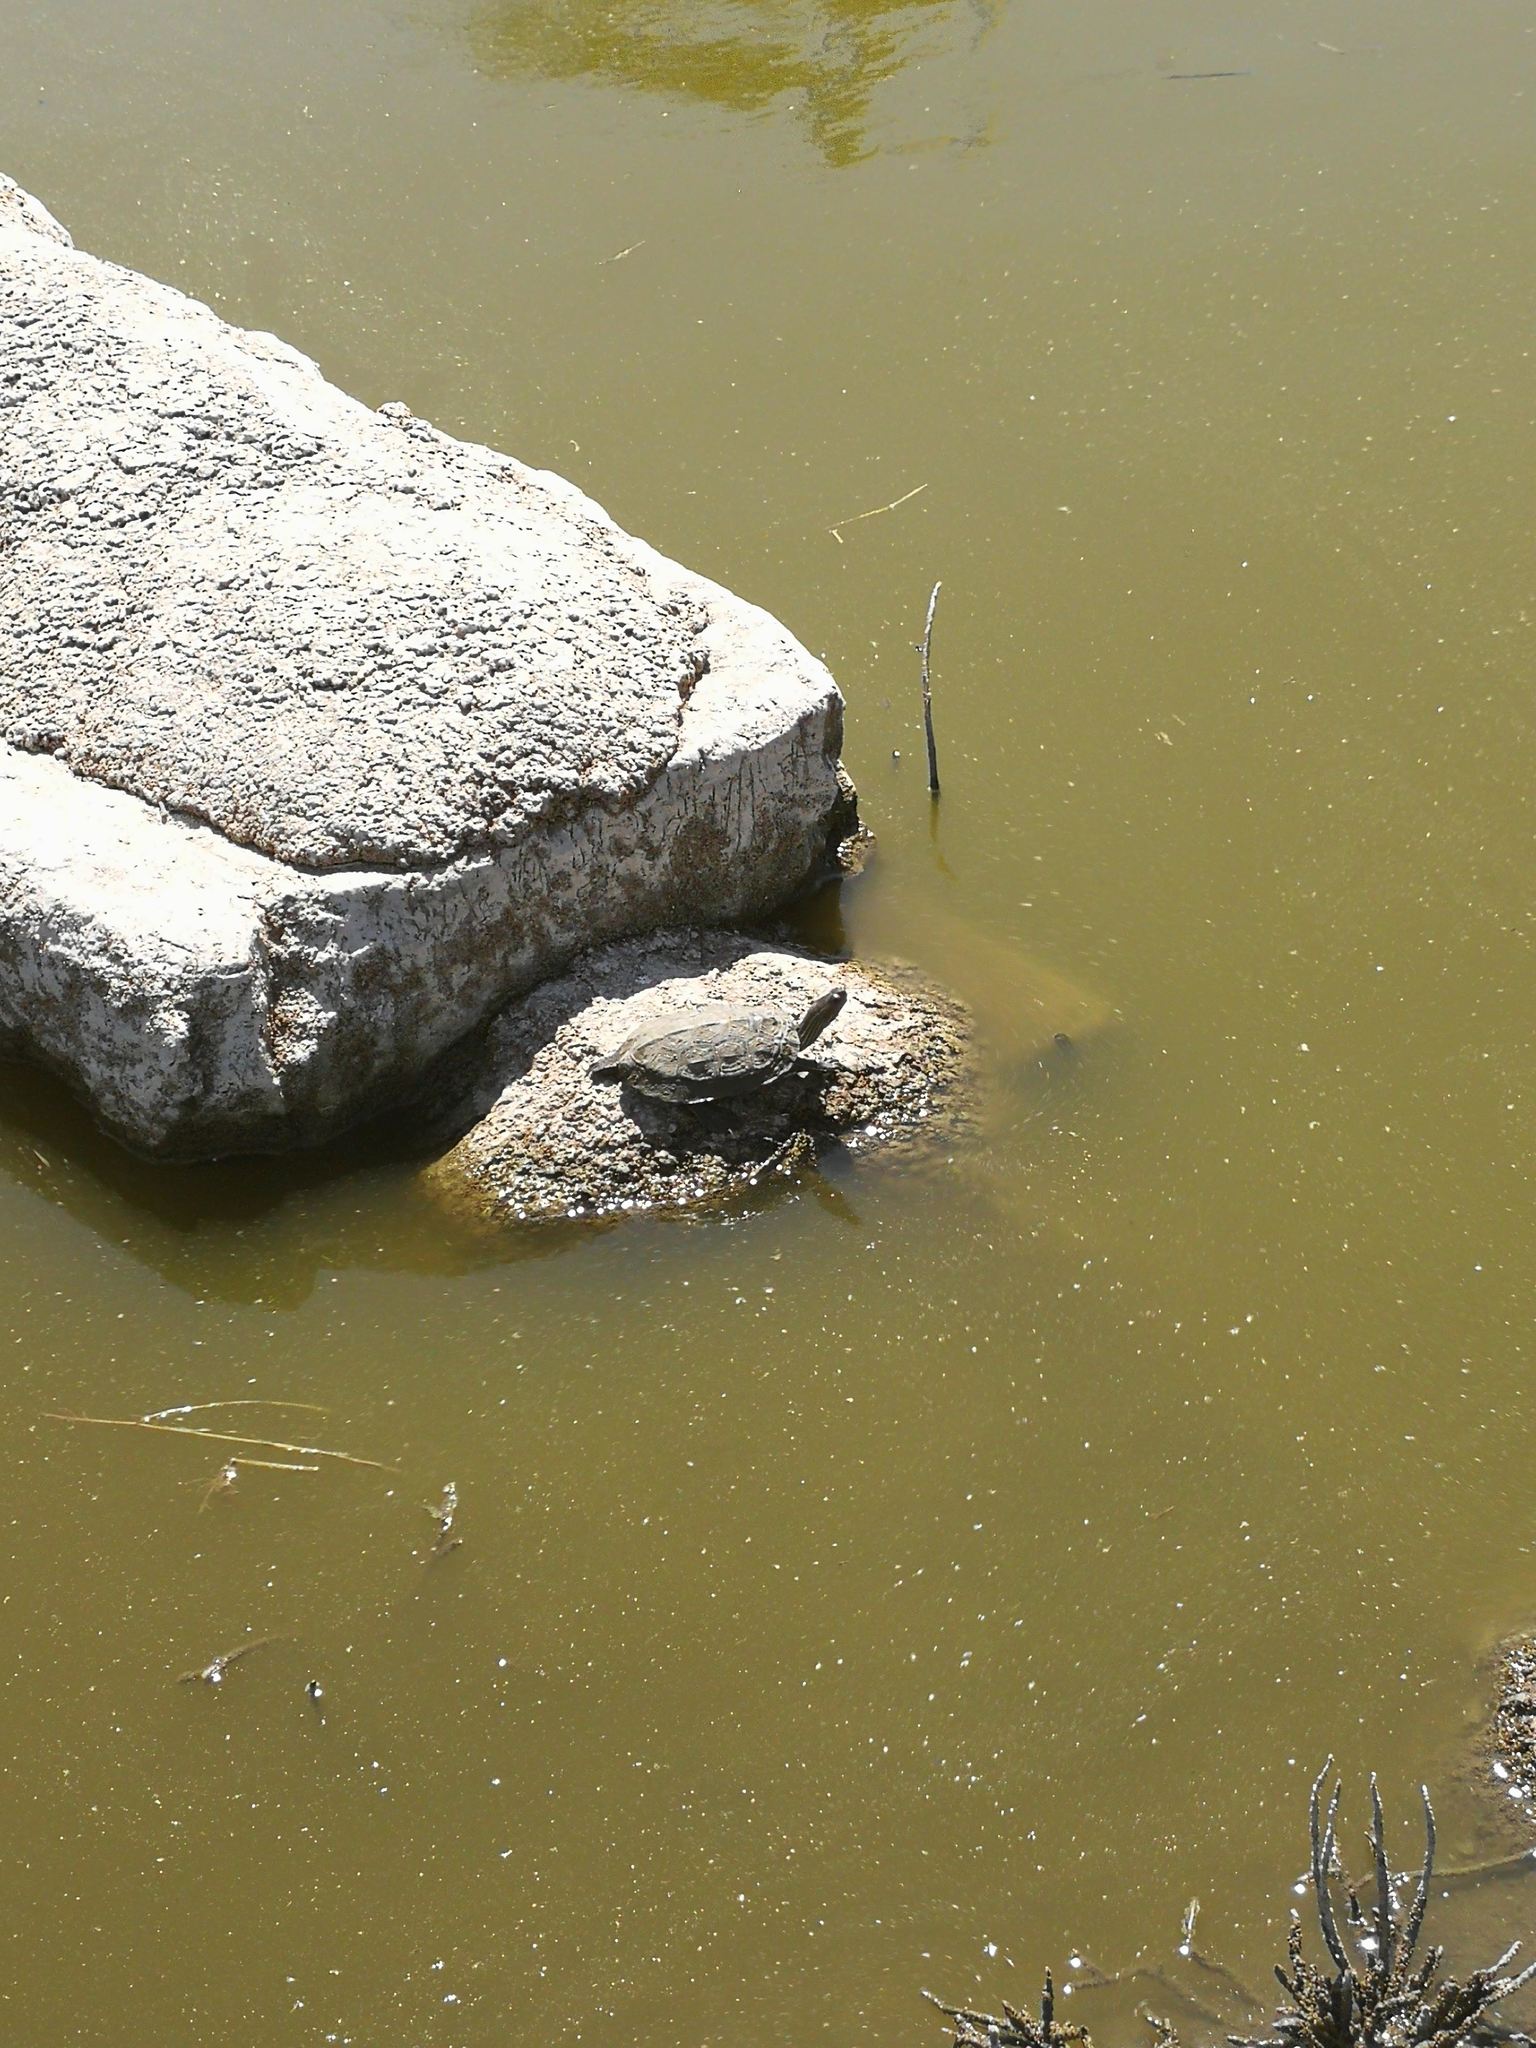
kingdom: Animalia
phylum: Chordata
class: Testudines
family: Geoemydidae
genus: Mauremys
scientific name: Mauremys rivulata
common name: Western caspian turtle
